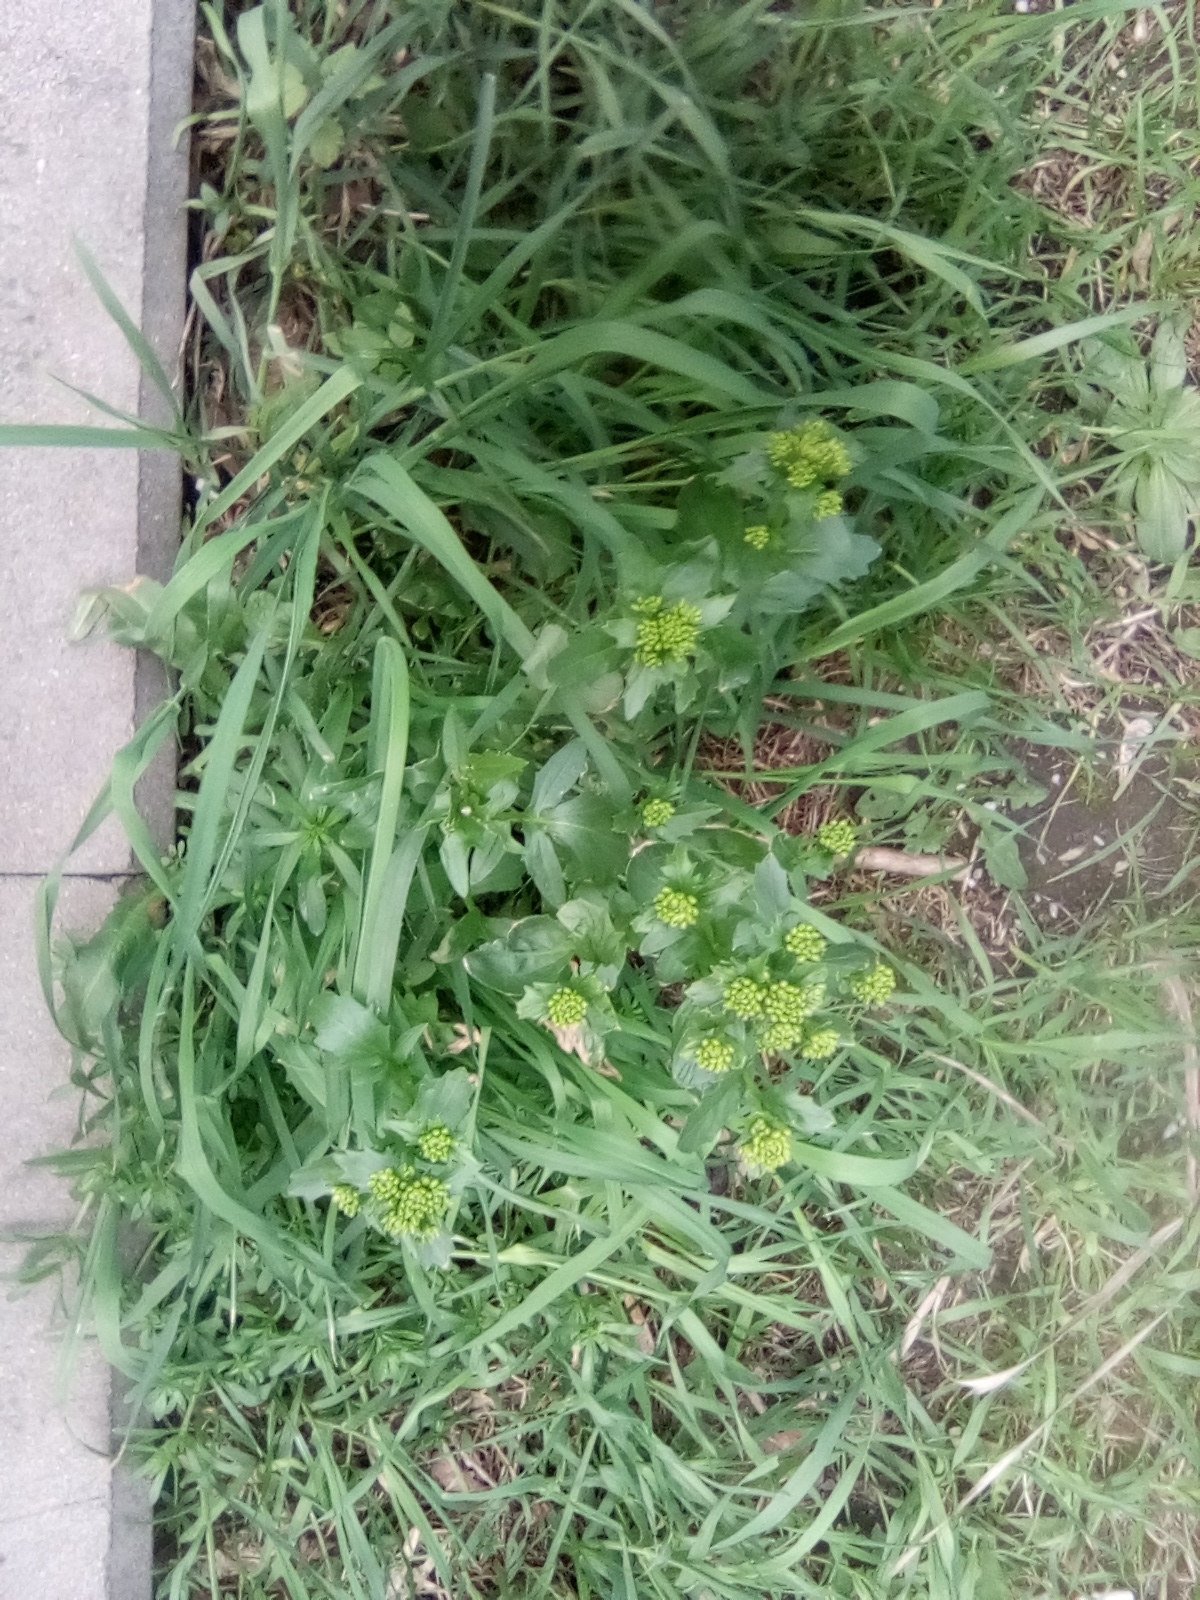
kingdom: Plantae
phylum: Tracheophyta
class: Magnoliopsida
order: Brassicales
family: Brassicaceae
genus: Barbarea
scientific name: Barbarea vulgaris
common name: Cressy-greens
